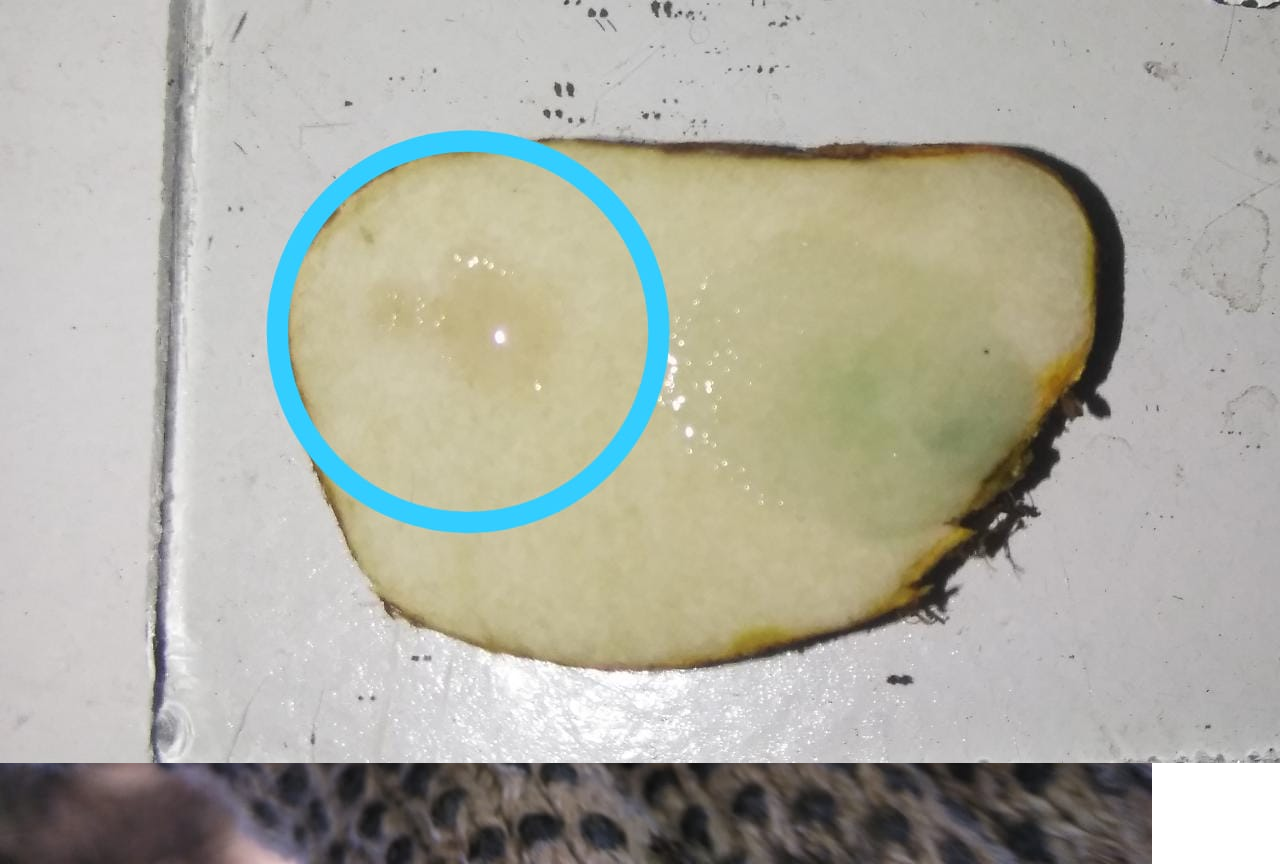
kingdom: Fungi
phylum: Basidiomycota
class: Agaricomycetes
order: Boletales
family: Rhizopogonaceae
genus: Rhizopogon
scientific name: Rhizopogon ochraceorubens
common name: Yellow beard truffle
